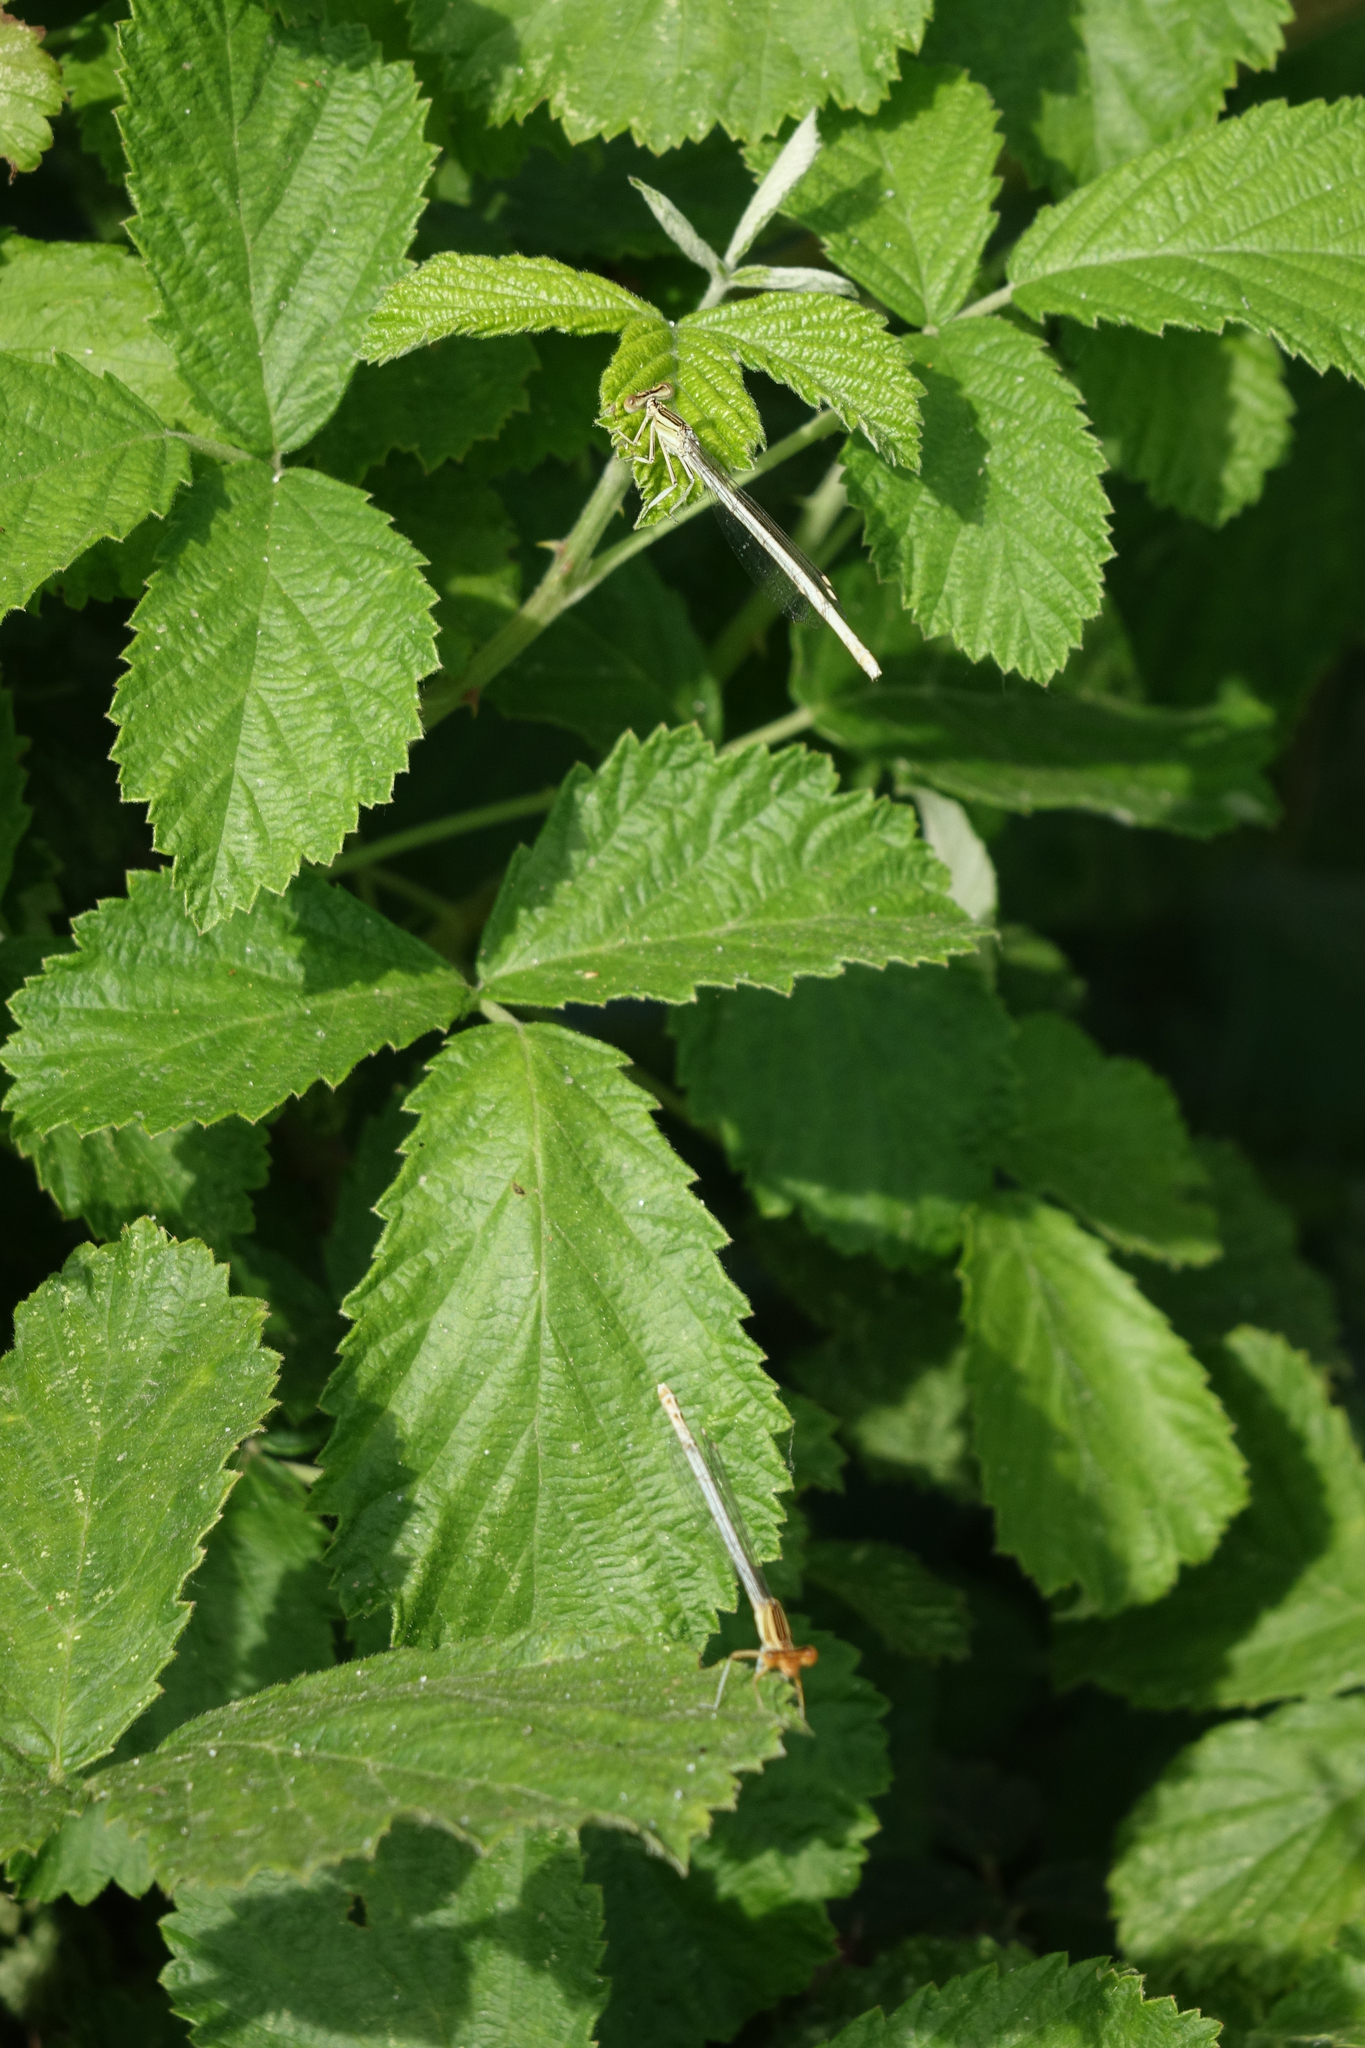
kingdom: Animalia
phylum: Arthropoda
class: Insecta
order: Odonata
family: Platycnemididae
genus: Platycnemis
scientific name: Platycnemis dealbata
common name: Ivory featherleg
